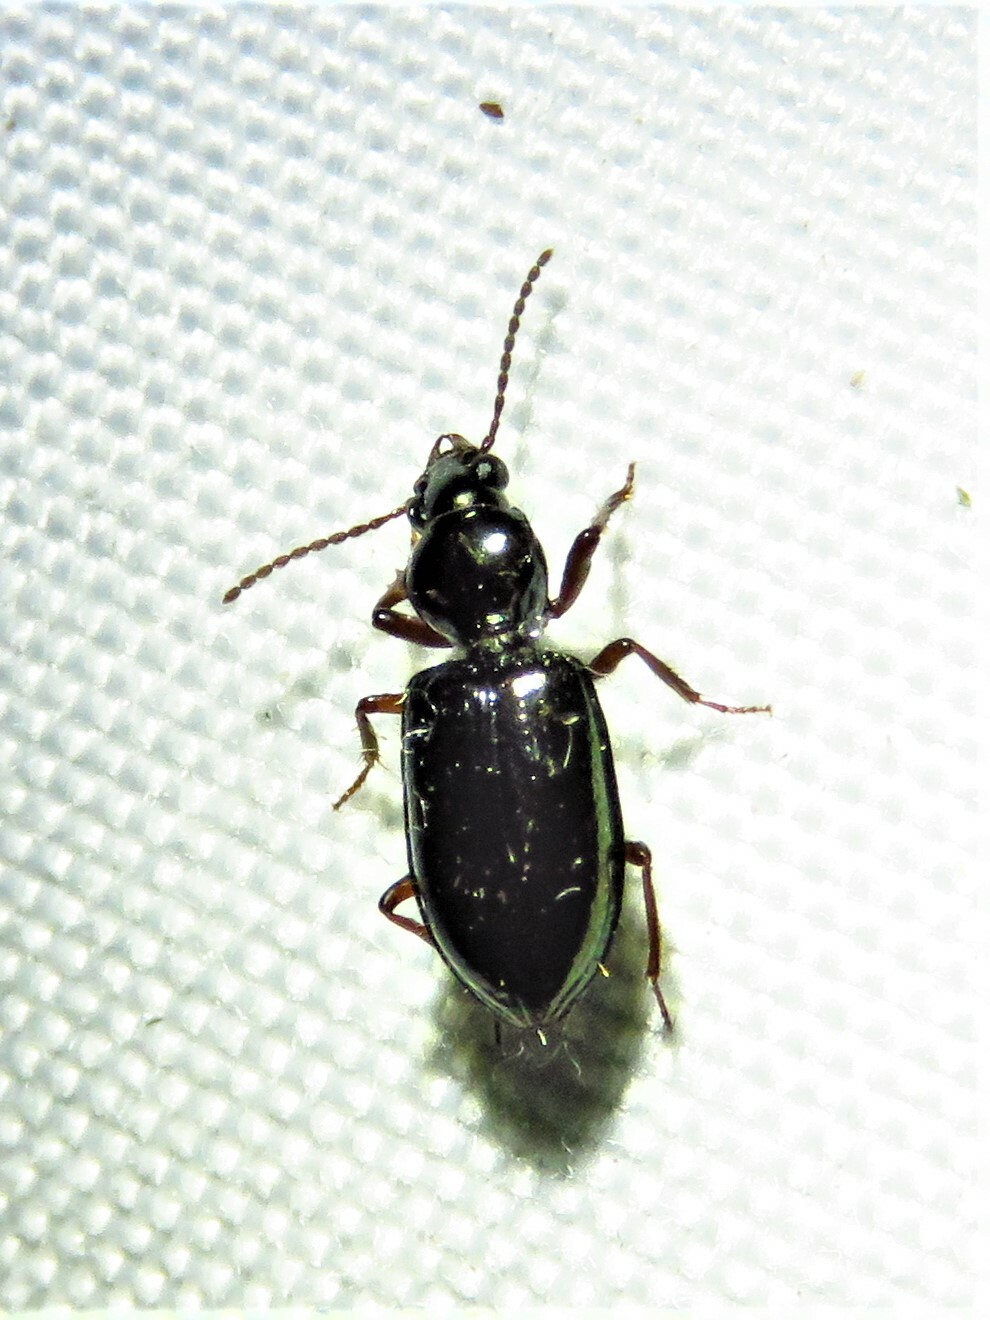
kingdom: Animalia
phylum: Arthropoda
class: Insecta
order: Coleoptera
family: Carabidae
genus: Semiardistomis
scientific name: Semiardistomis viridis
